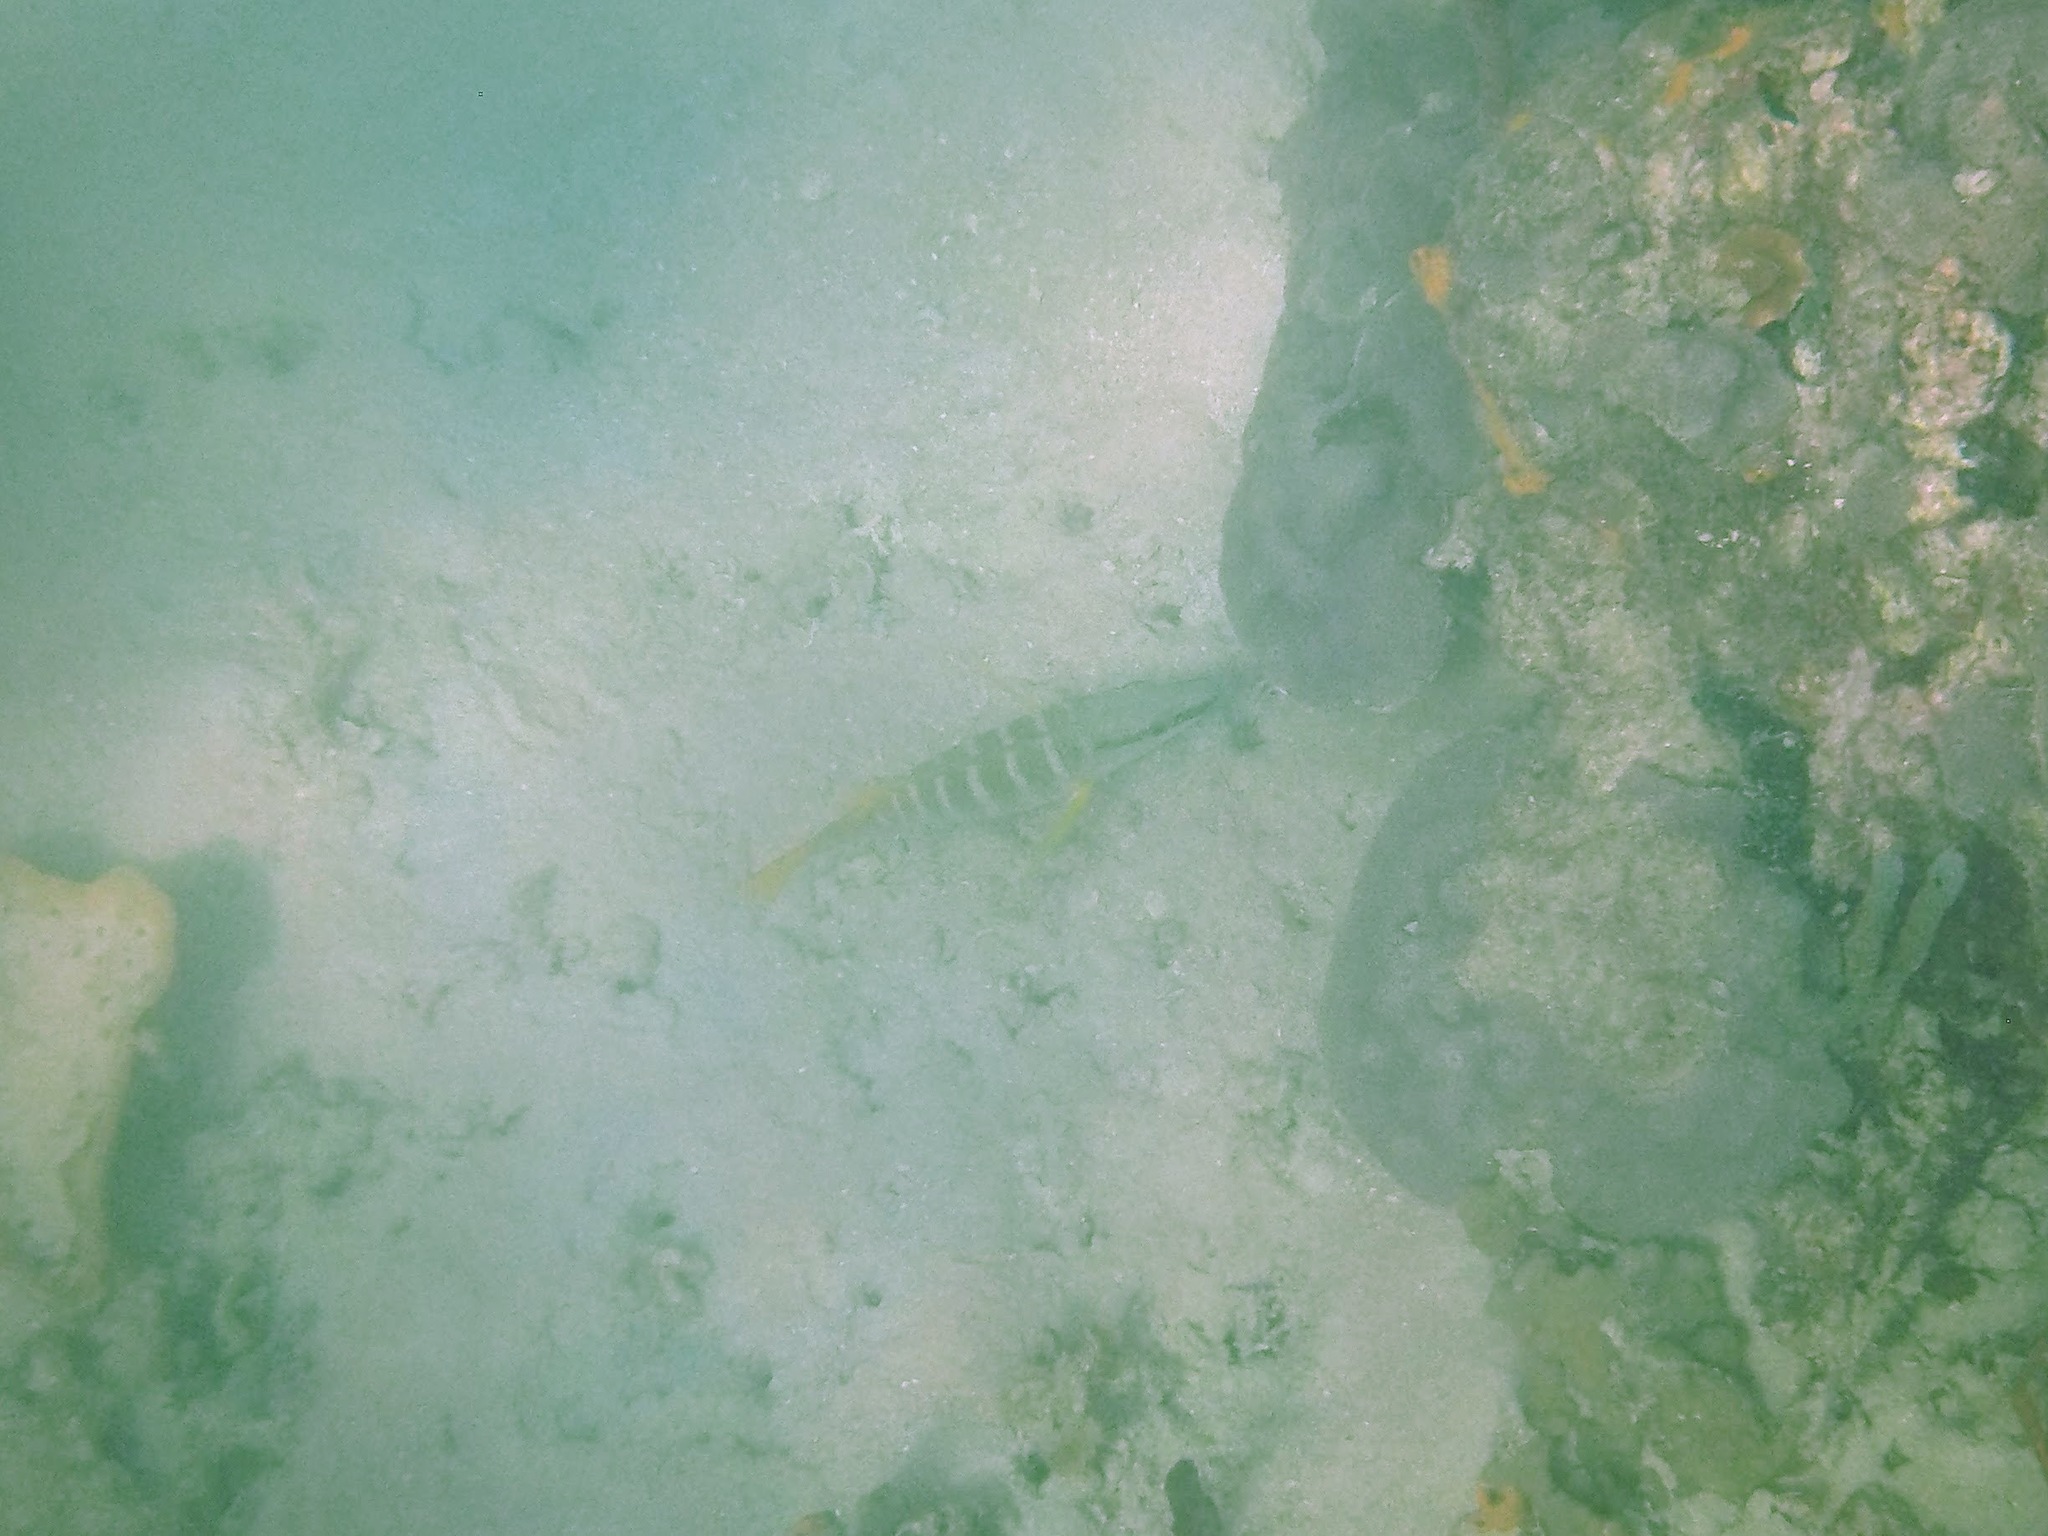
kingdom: Animalia
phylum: Chordata
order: Perciformes
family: Lutjanidae
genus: Lutjanus
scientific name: Lutjanus apodus
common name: Schoolmaster
